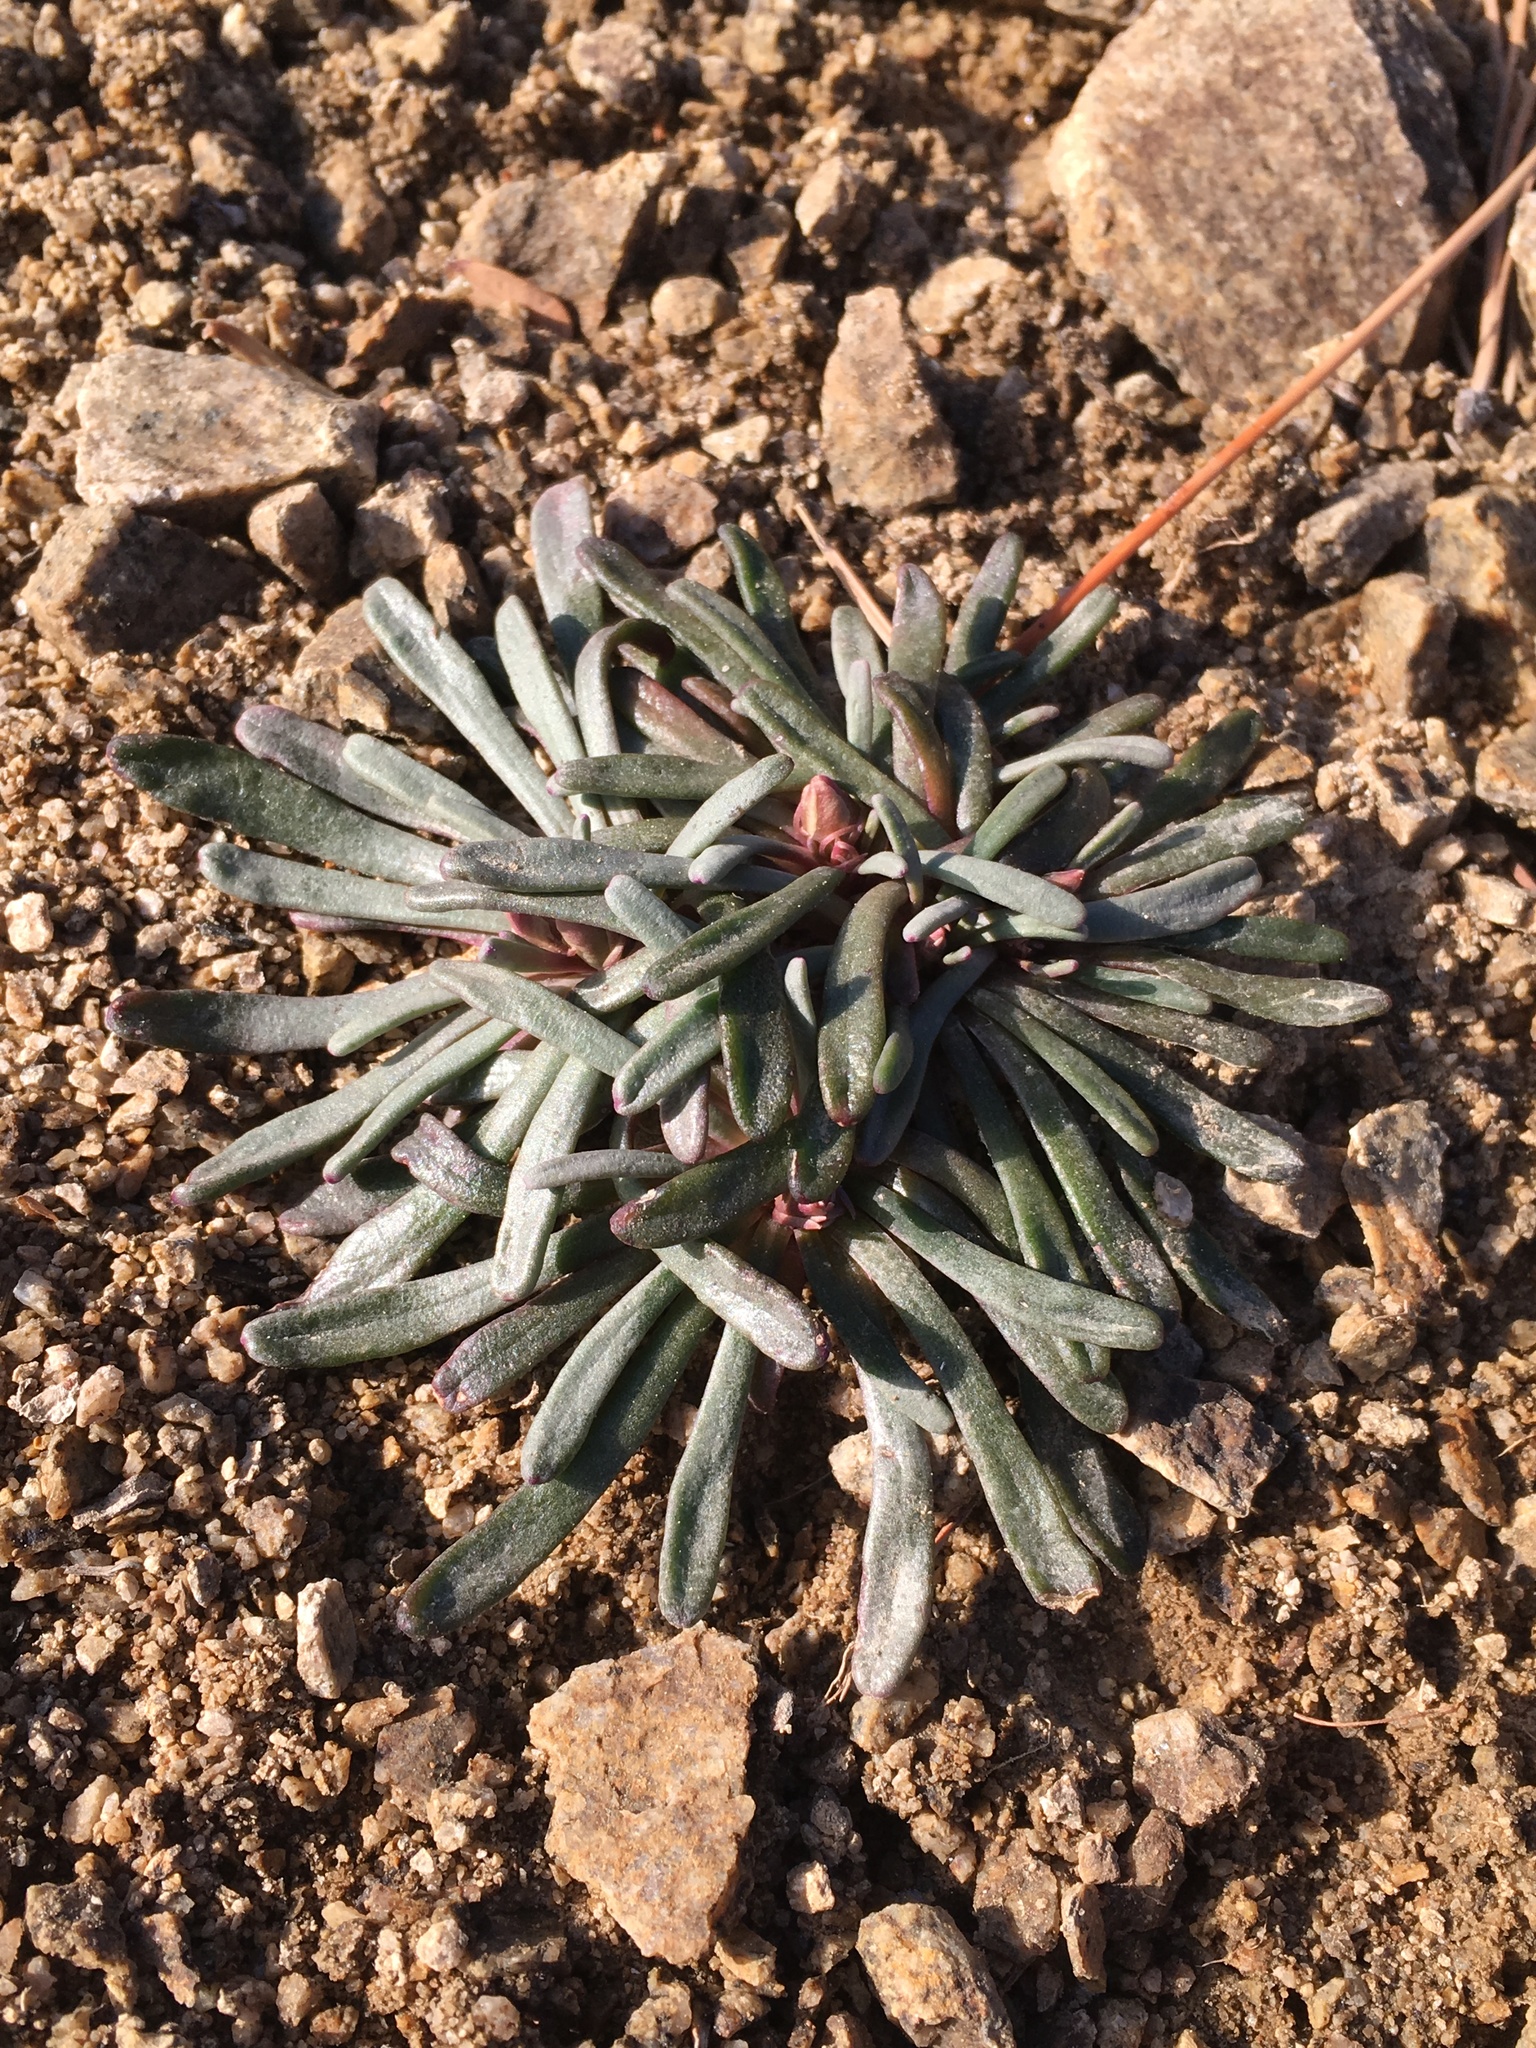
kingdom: Plantae
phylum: Tracheophyta
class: Magnoliopsida
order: Caryophyllales
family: Montiaceae
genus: Lewisia
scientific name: Lewisia rediviva
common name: Bitter-root
